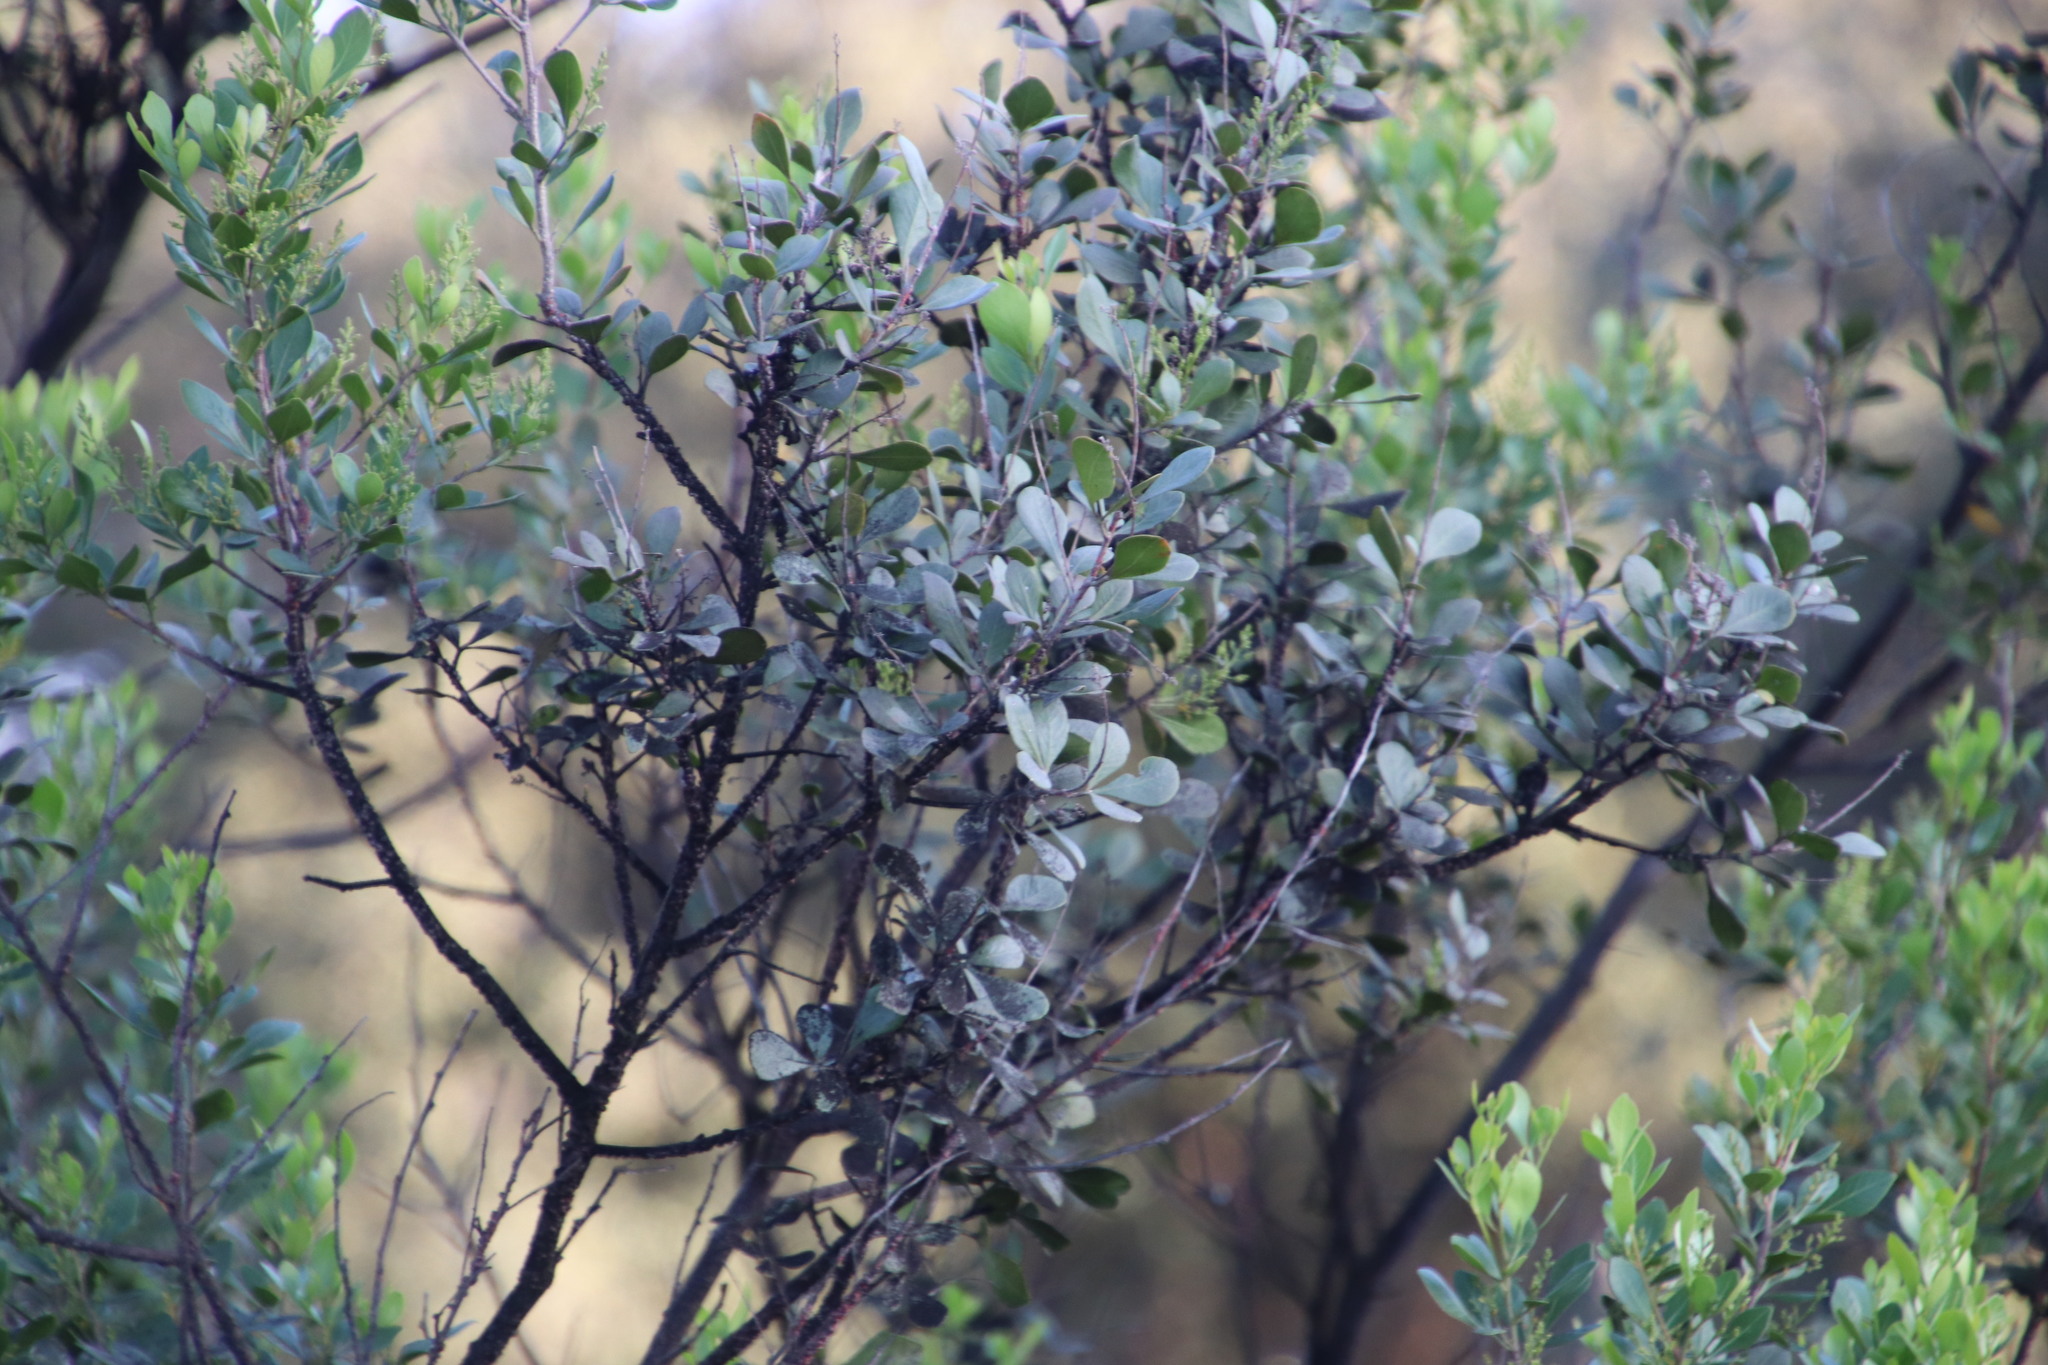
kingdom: Plantae
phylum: Tracheophyta
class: Magnoliopsida
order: Sapindales
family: Anacardiaceae
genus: Searsia
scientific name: Searsia lucida
